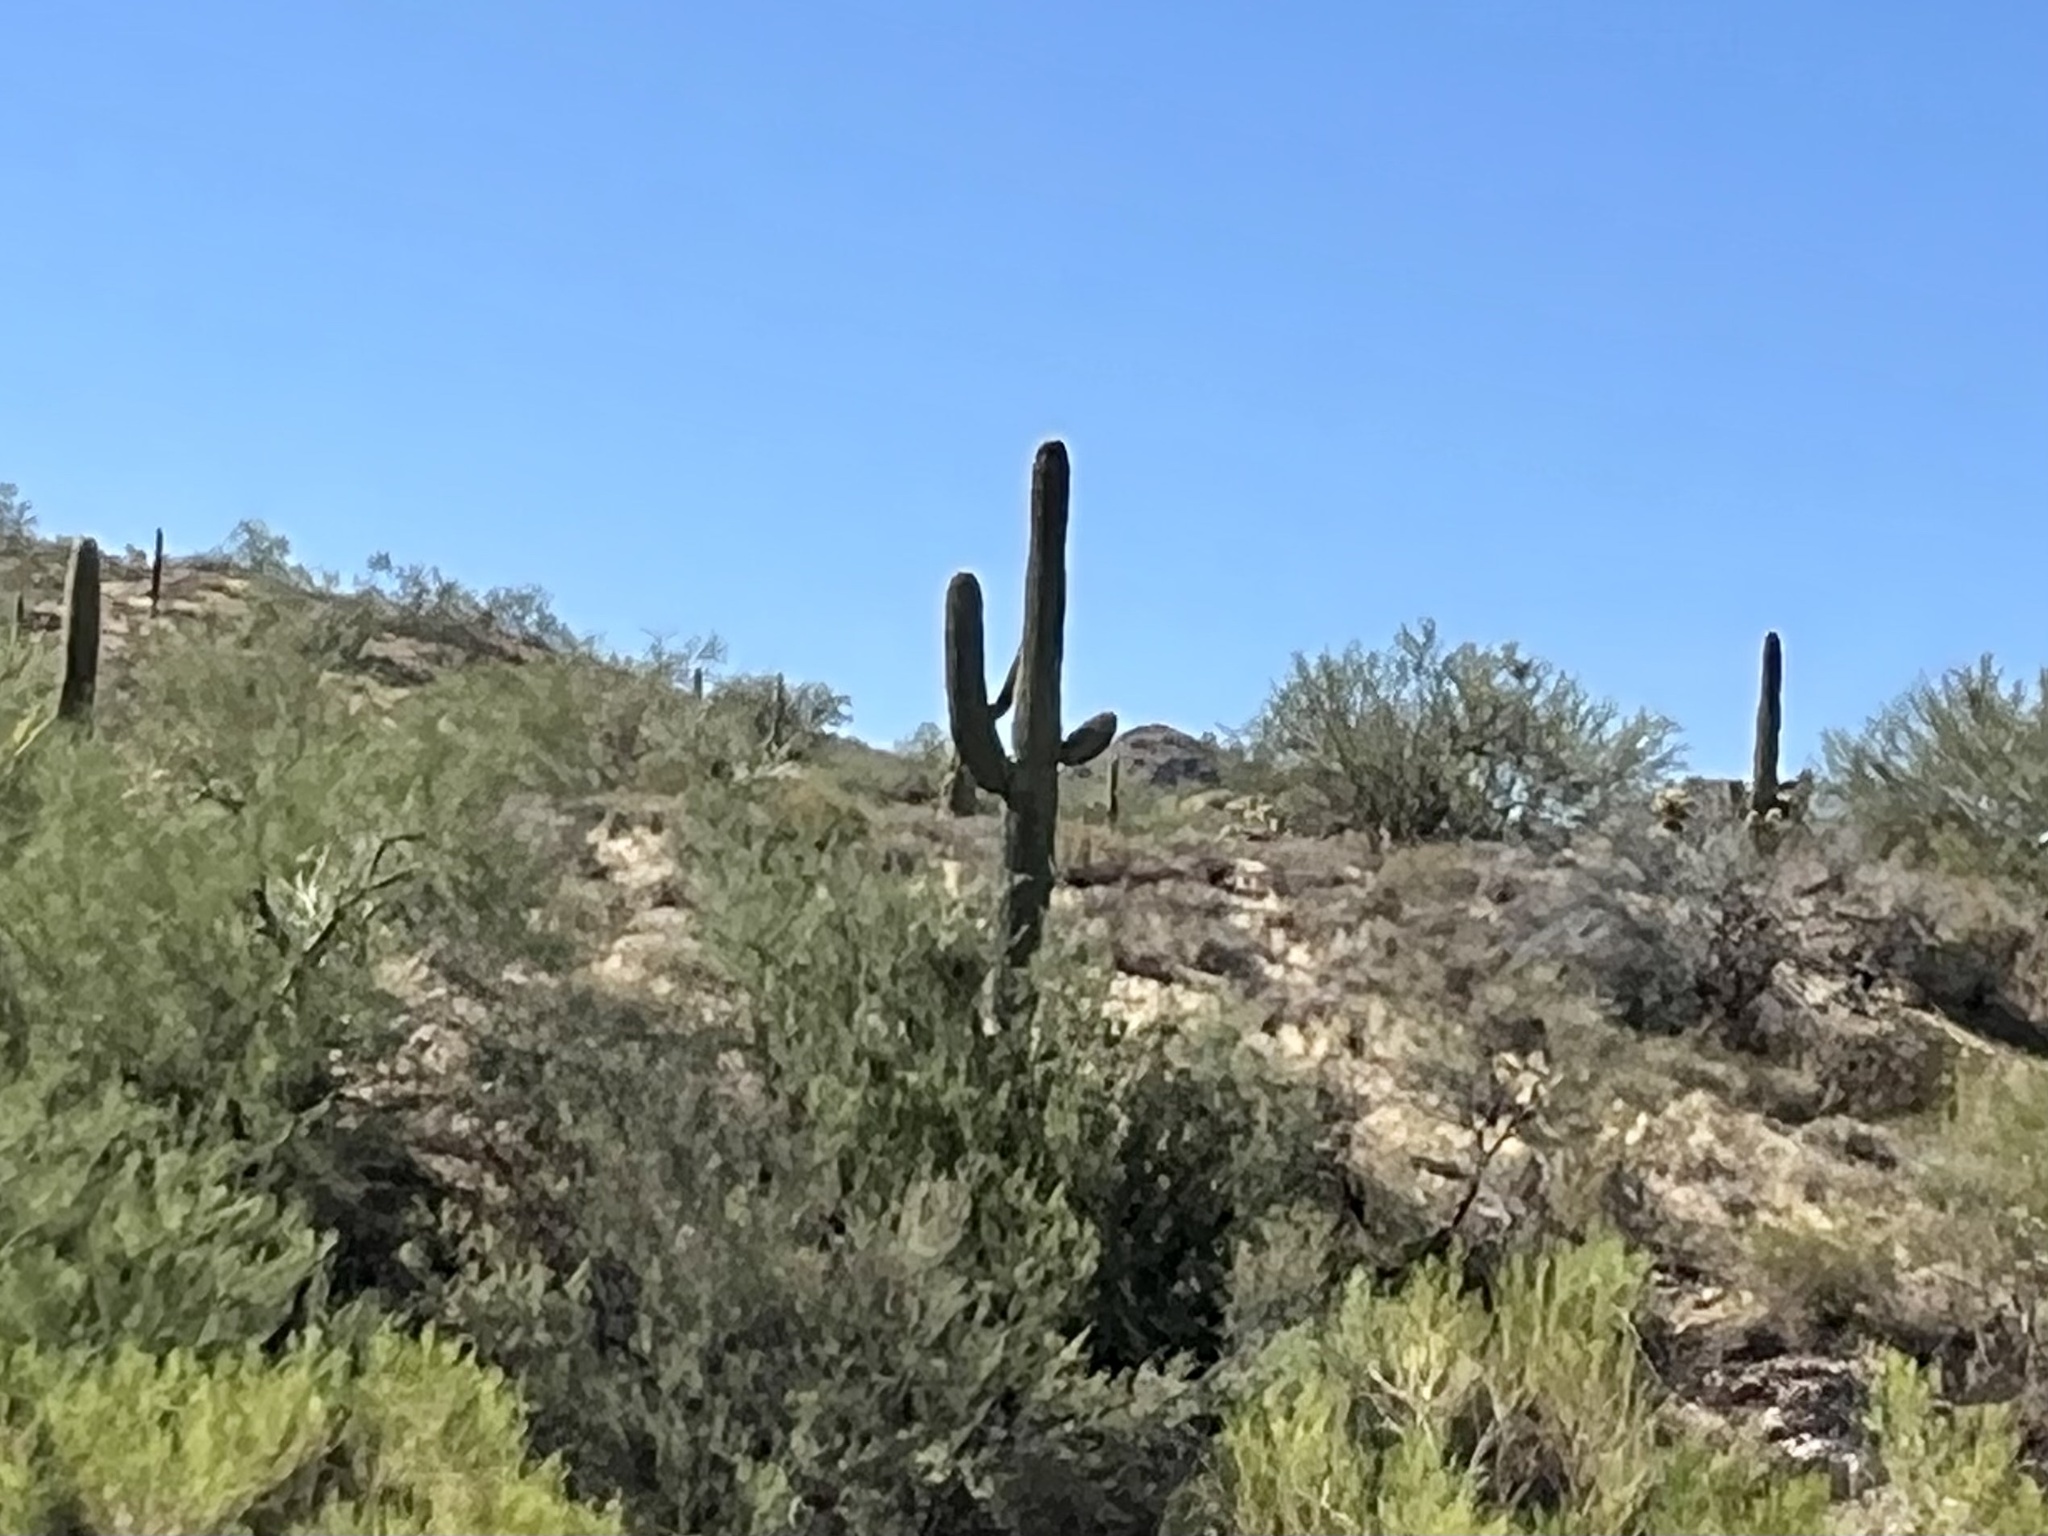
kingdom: Plantae
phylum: Tracheophyta
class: Magnoliopsida
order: Caryophyllales
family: Cactaceae
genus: Carnegiea
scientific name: Carnegiea gigantea
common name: Saguaro
